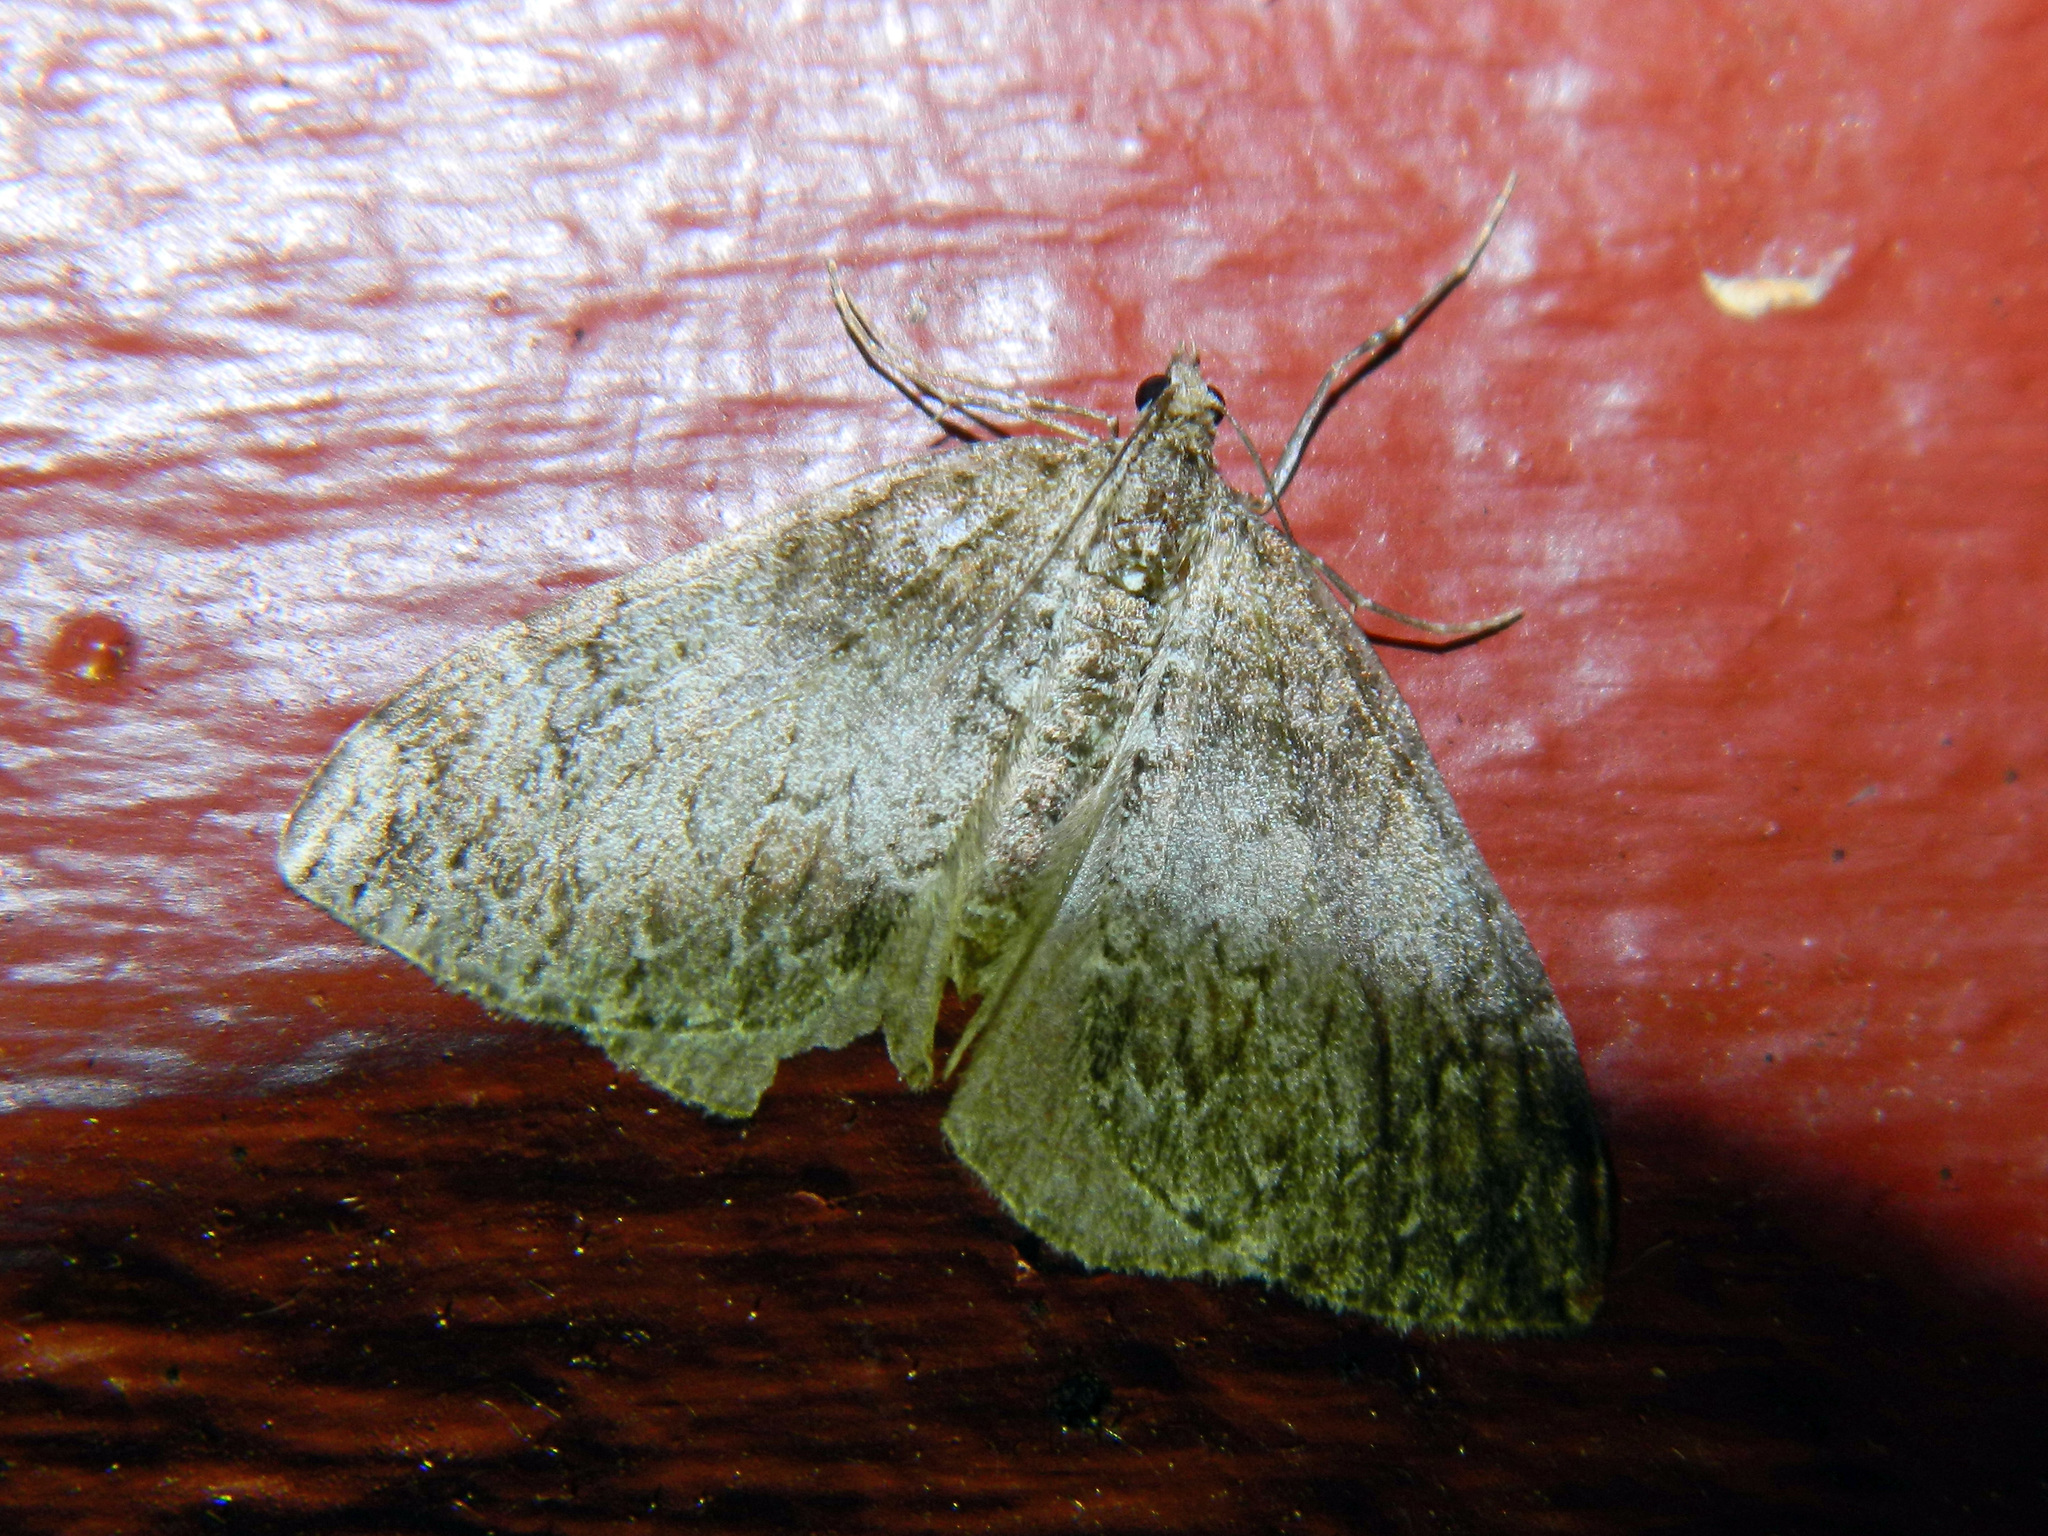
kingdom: Animalia
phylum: Arthropoda
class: Insecta
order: Lepidoptera
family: Geometridae
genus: Dysstroma
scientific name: Dysstroma citrata
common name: Dark marbled carpet
